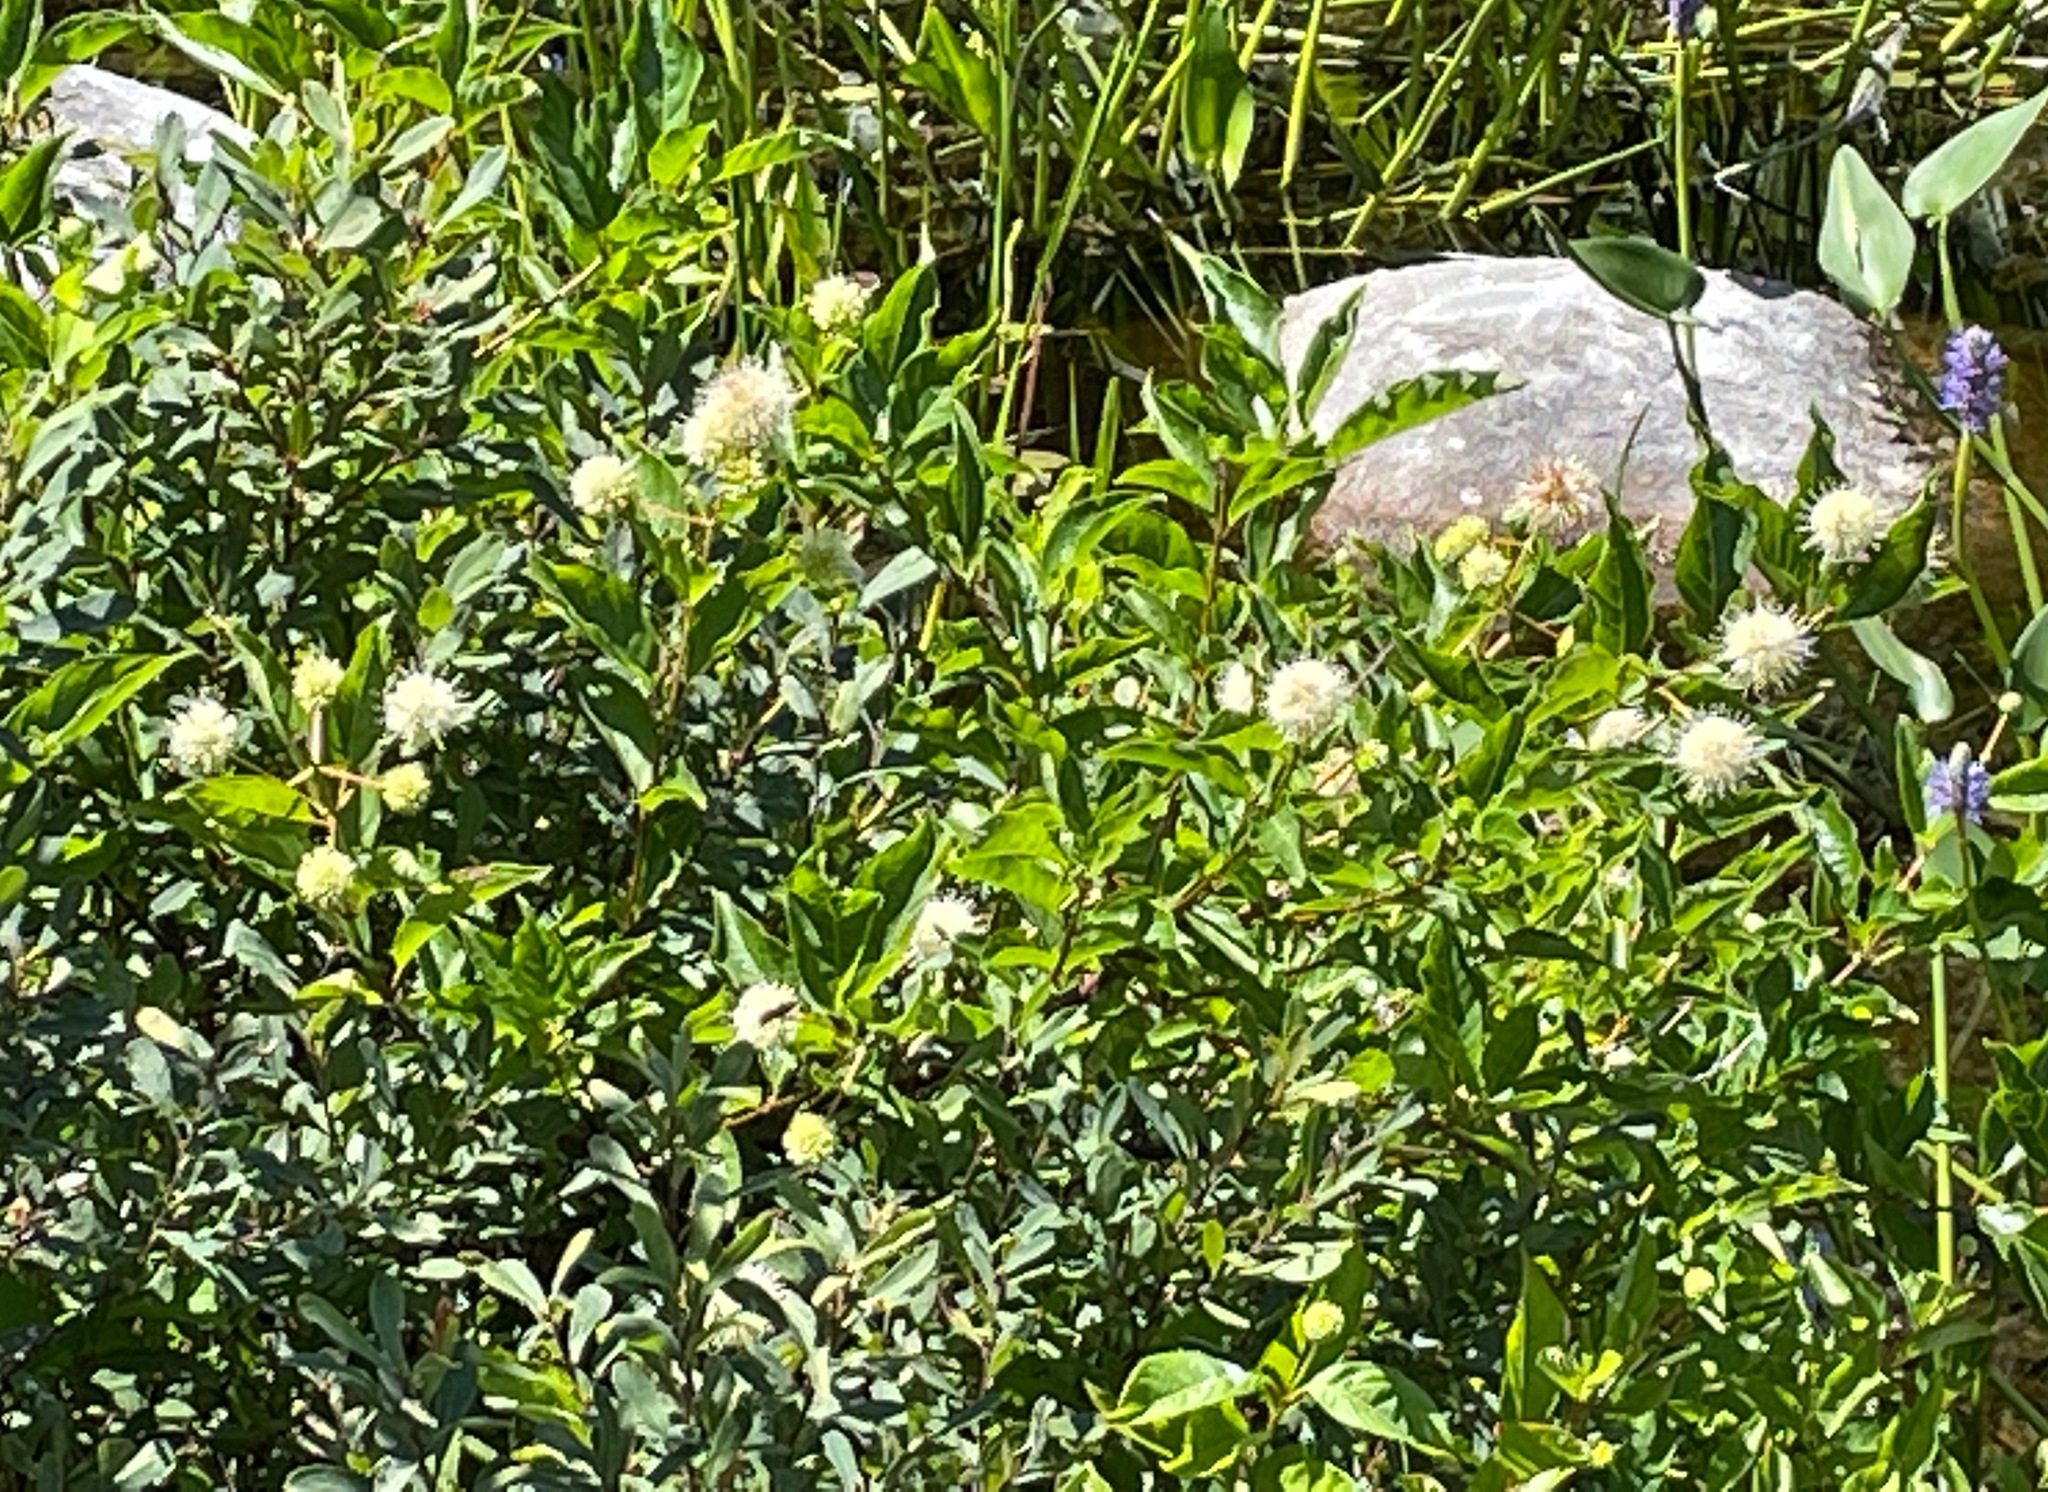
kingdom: Plantae
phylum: Tracheophyta
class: Magnoliopsida
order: Gentianales
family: Rubiaceae
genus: Cephalanthus
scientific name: Cephalanthus occidentalis
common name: Button-willow
